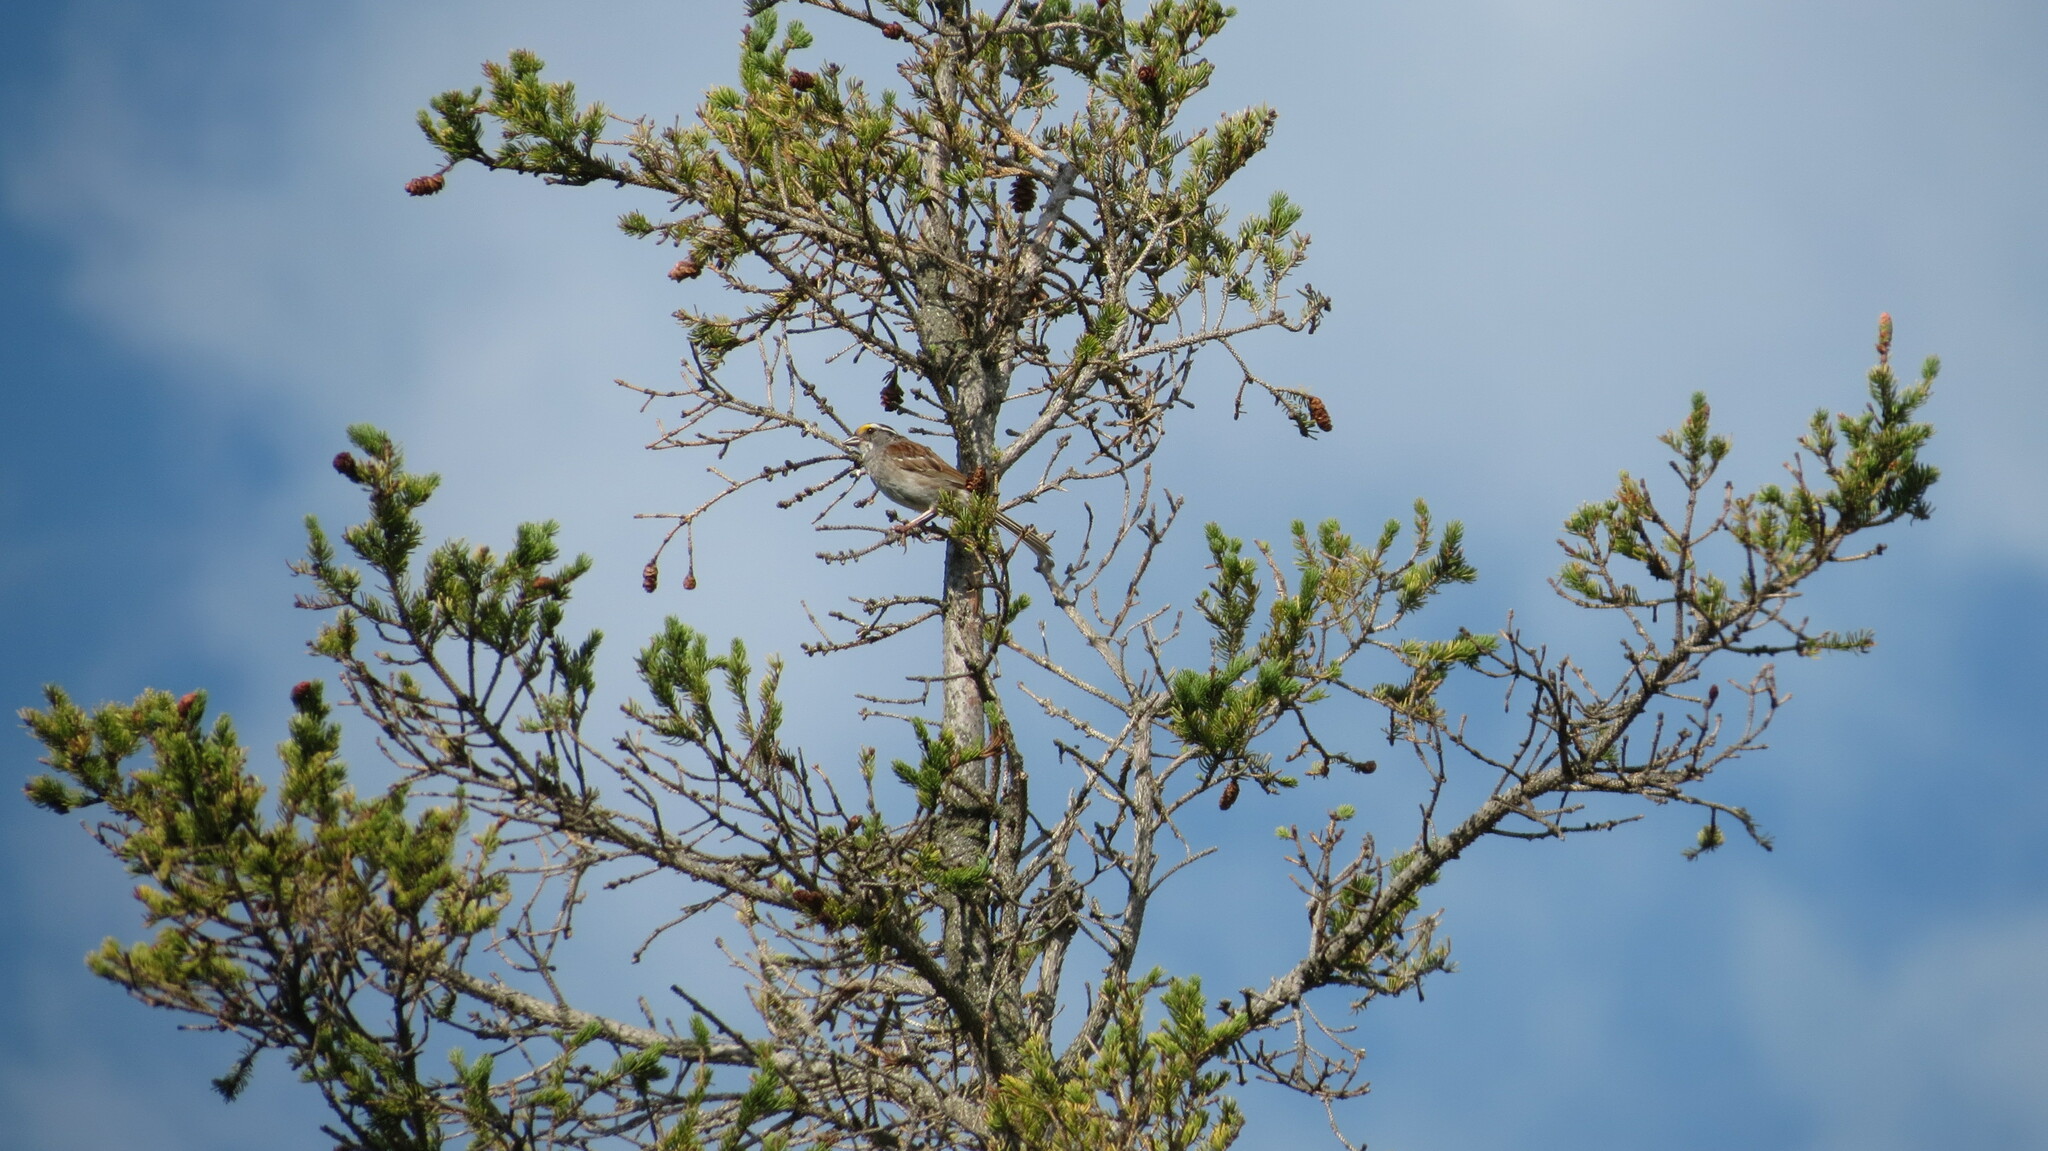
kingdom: Animalia
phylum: Chordata
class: Aves
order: Passeriformes
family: Passerellidae
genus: Zonotrichia
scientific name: Zonotrichia albicollis
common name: White-throated sparrow
